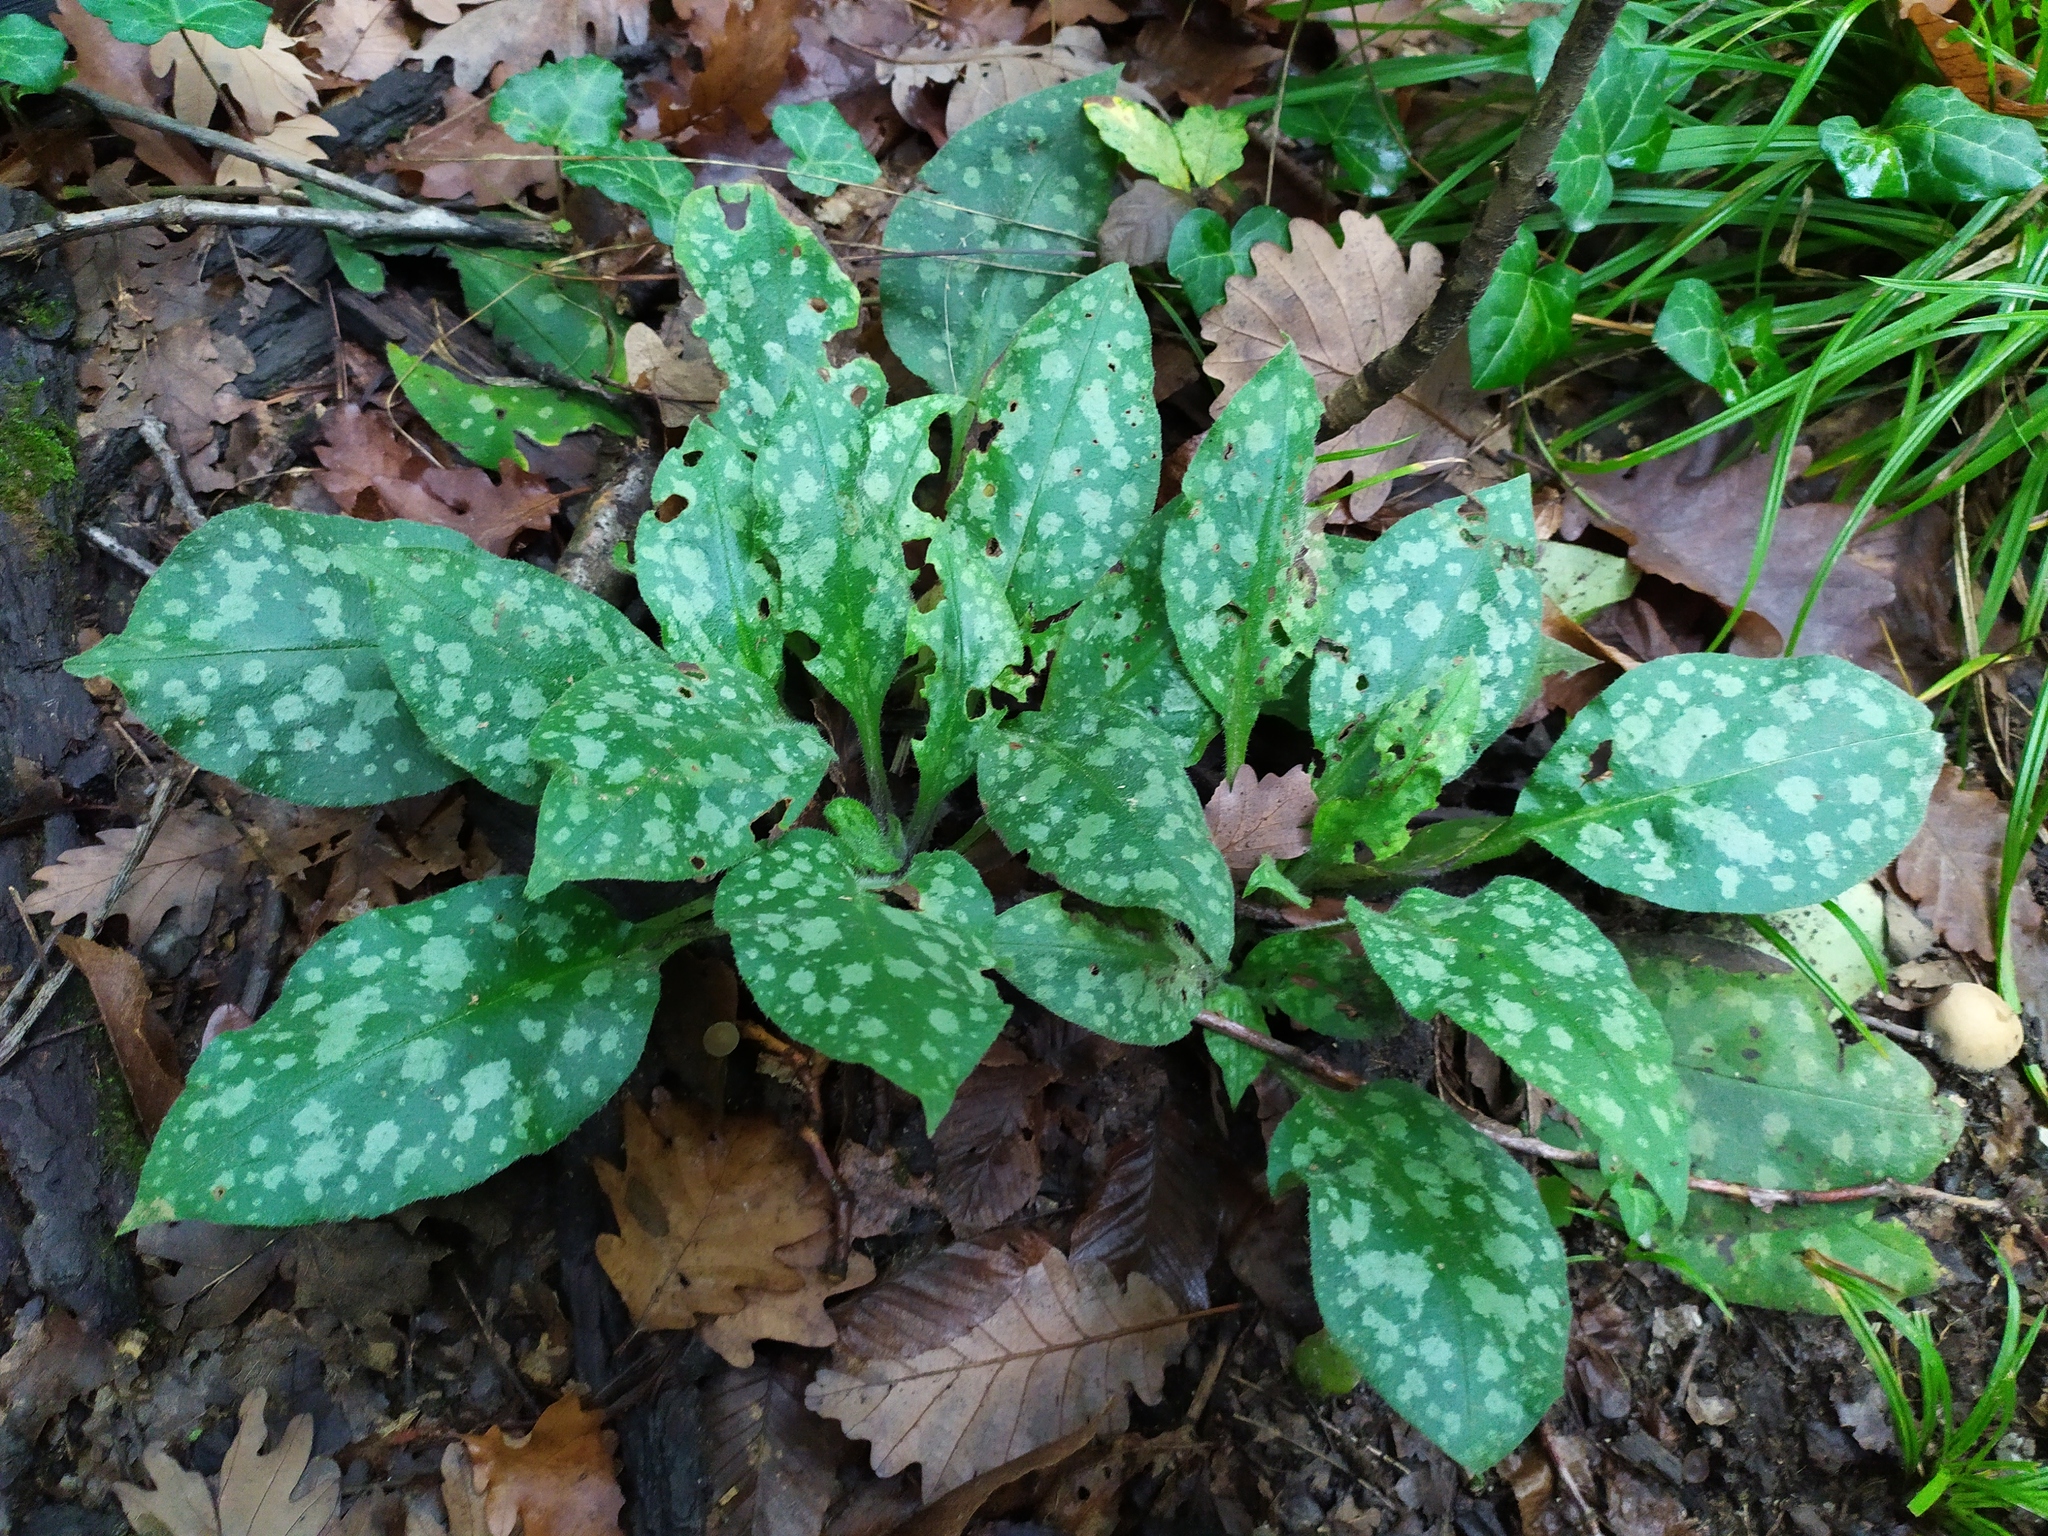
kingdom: Plantae
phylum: Tracheophyta
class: Magnoliopsida
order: Boraginales
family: Boraginaceae
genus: Pulmonaria
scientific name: Pulmonaria officinalis
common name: Lungwort
